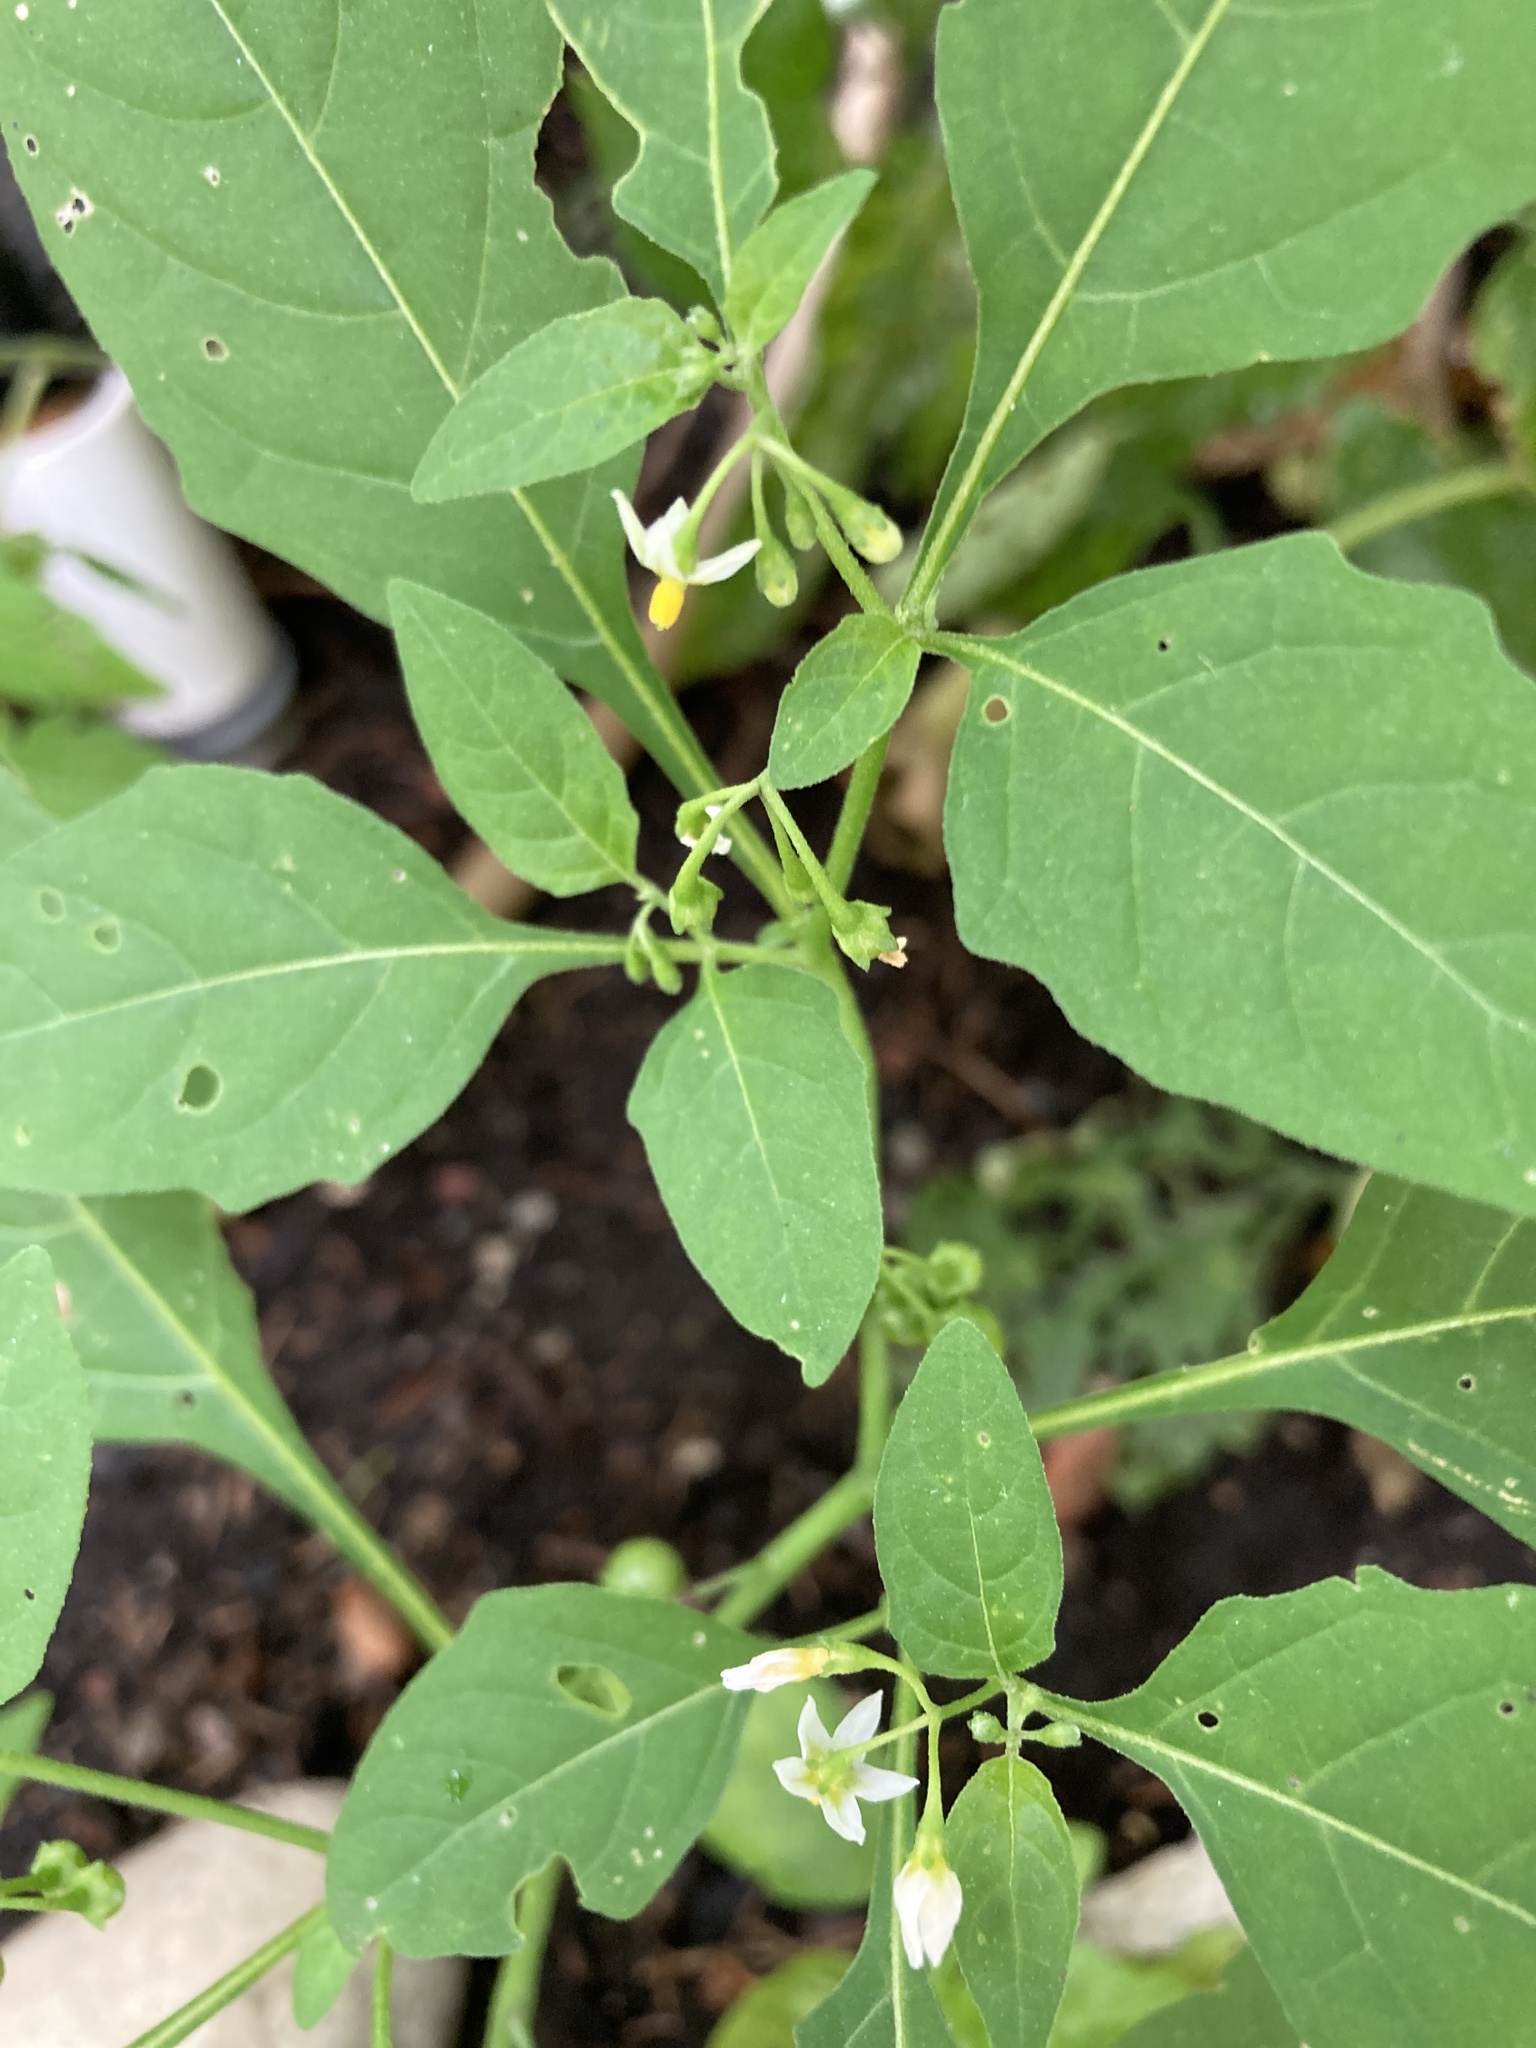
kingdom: Plantae
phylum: Tracheophyta
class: Magnoliopsida
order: Solanales
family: Solanaceae
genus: Solanum
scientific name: Solanum emulans
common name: Eastern black nightshade
